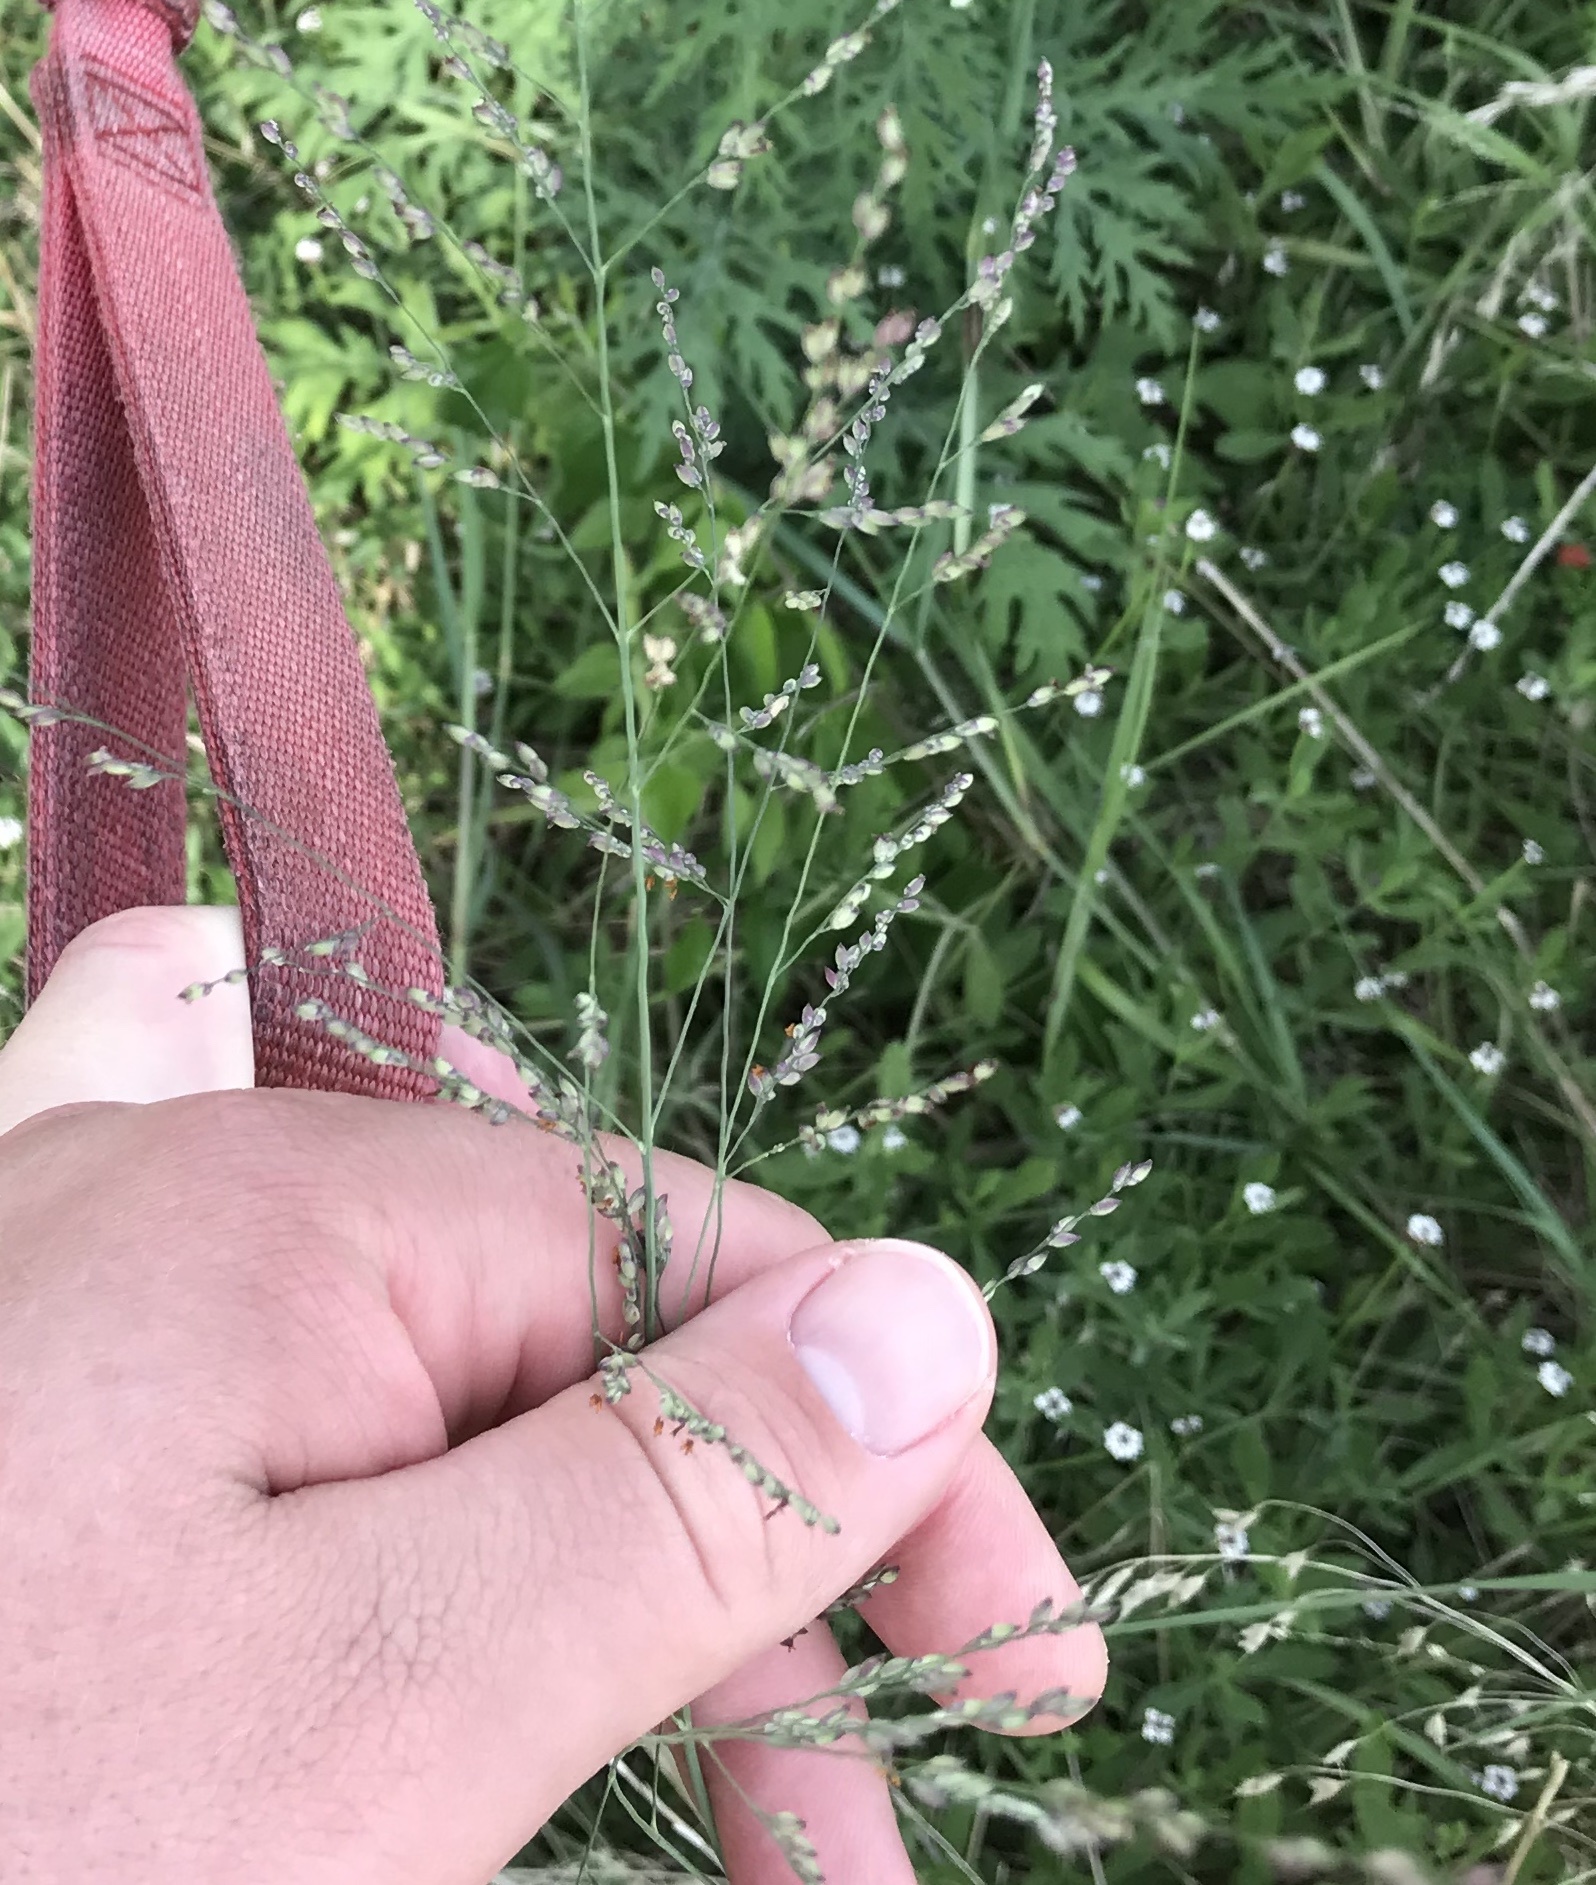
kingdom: Plantae
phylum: Tracheophyta
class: Liliopsida
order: Poales
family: Poaceae
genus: Panicum
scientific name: Panicum coloratum
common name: Kleingrass
